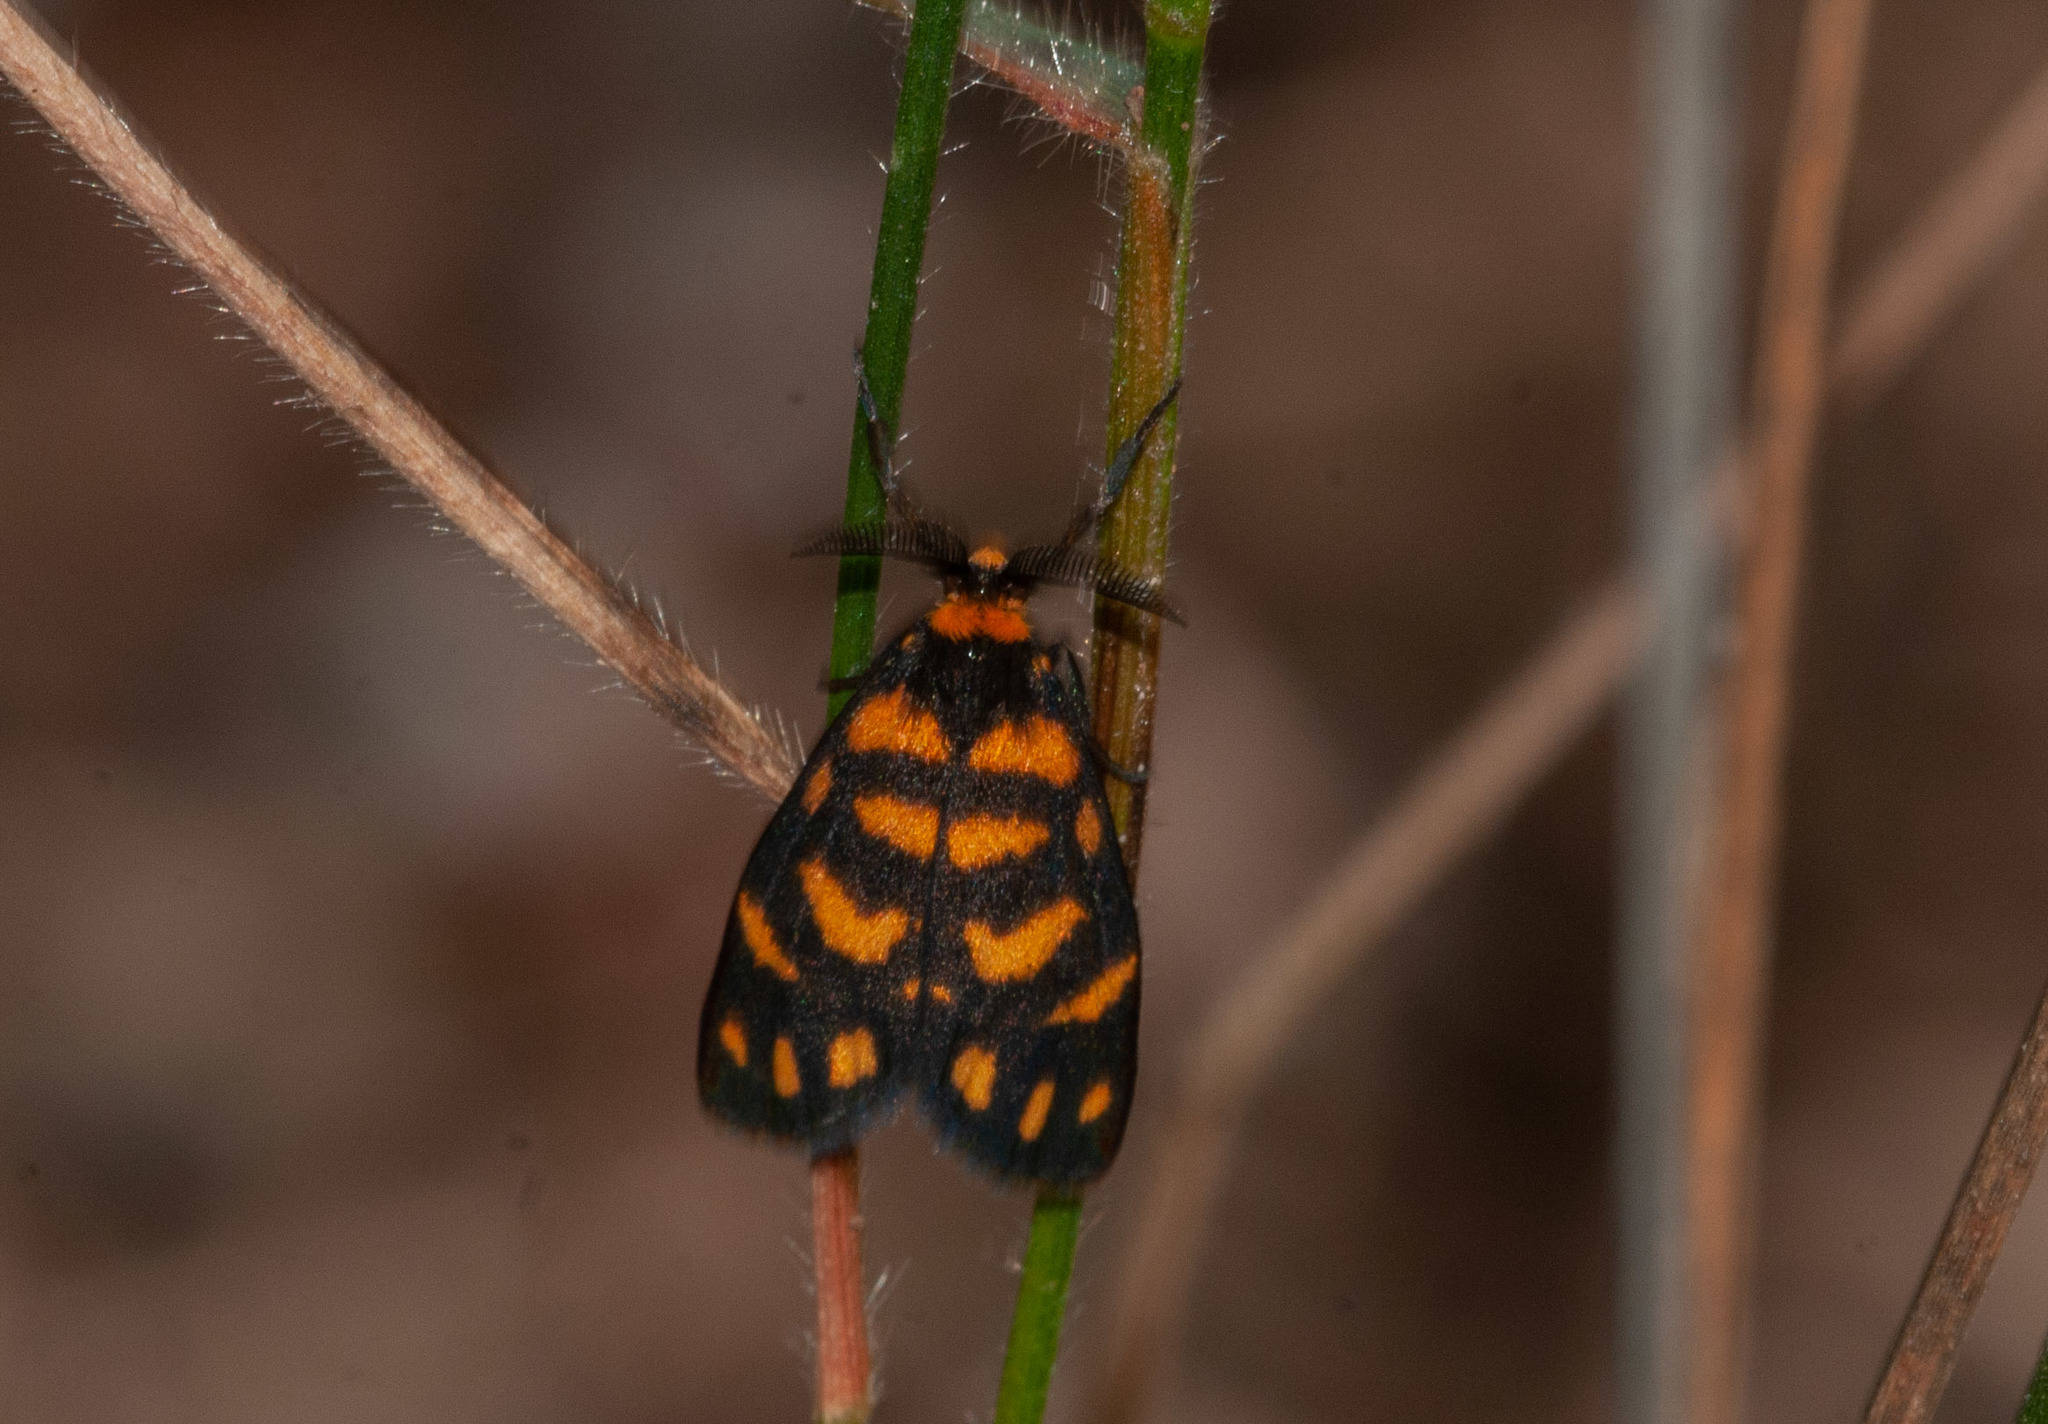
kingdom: Animalia
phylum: Arthropoda
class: Insecta
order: Lepidoptera
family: Erebidae
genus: Asura
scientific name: Asura lydia
